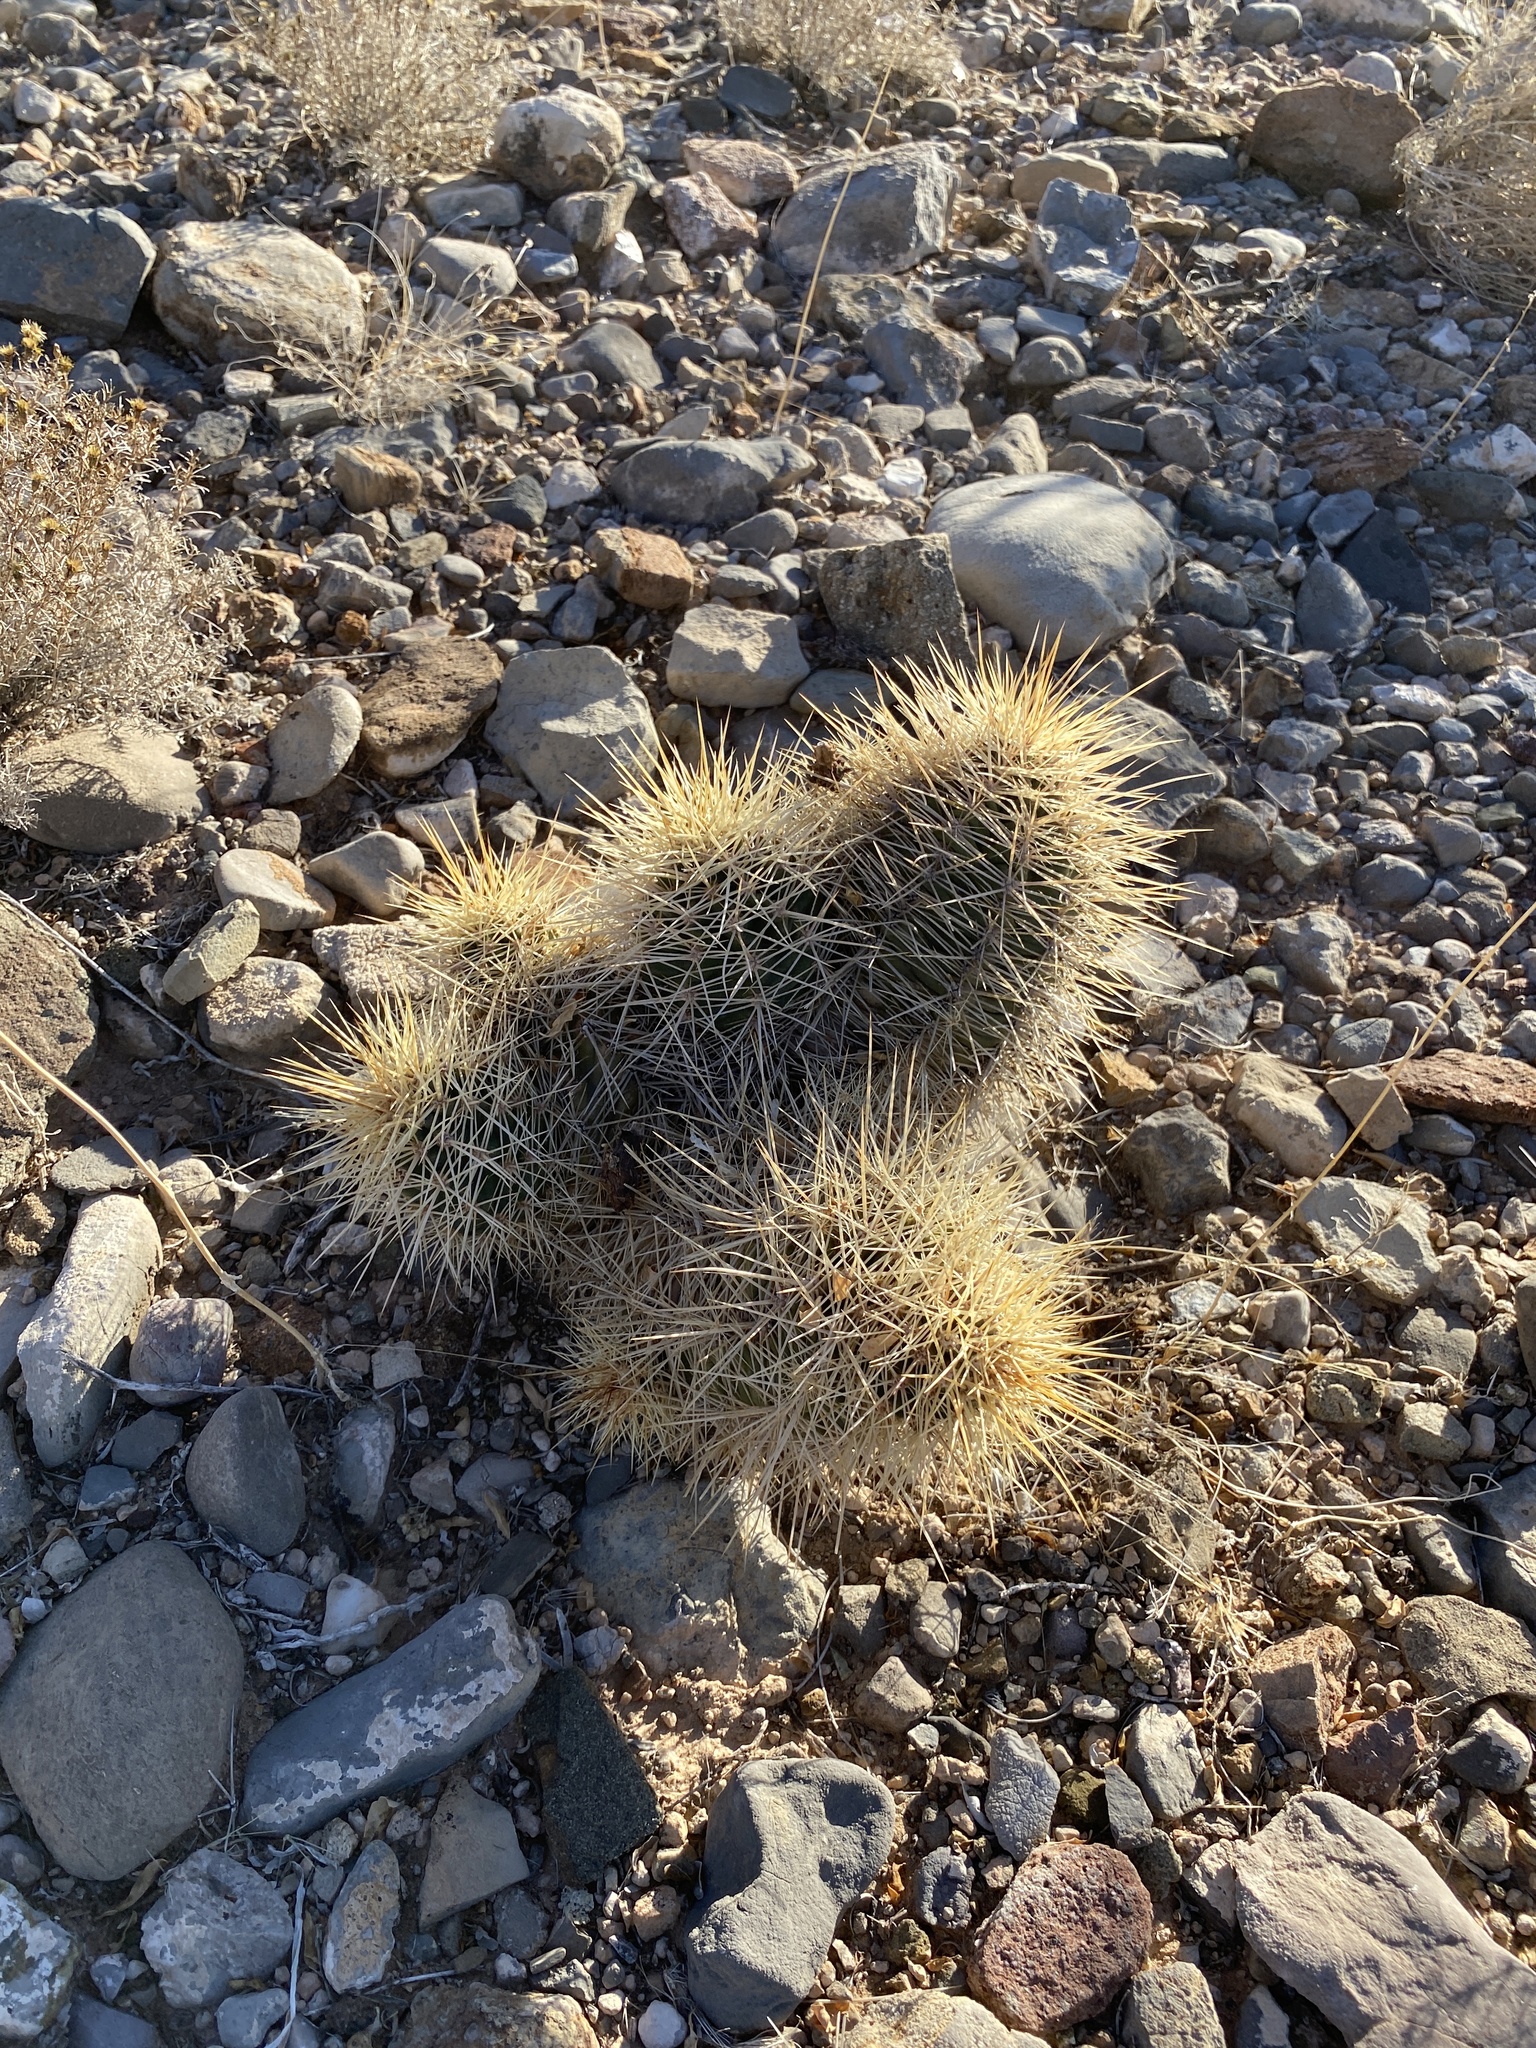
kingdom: Plantae
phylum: Tracheophyta
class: Magnoliopsida
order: Caryophyllales
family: Cactaceae
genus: Echinocereus
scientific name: Echinocereus coccineus
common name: Scarlet hedgehog cactus
